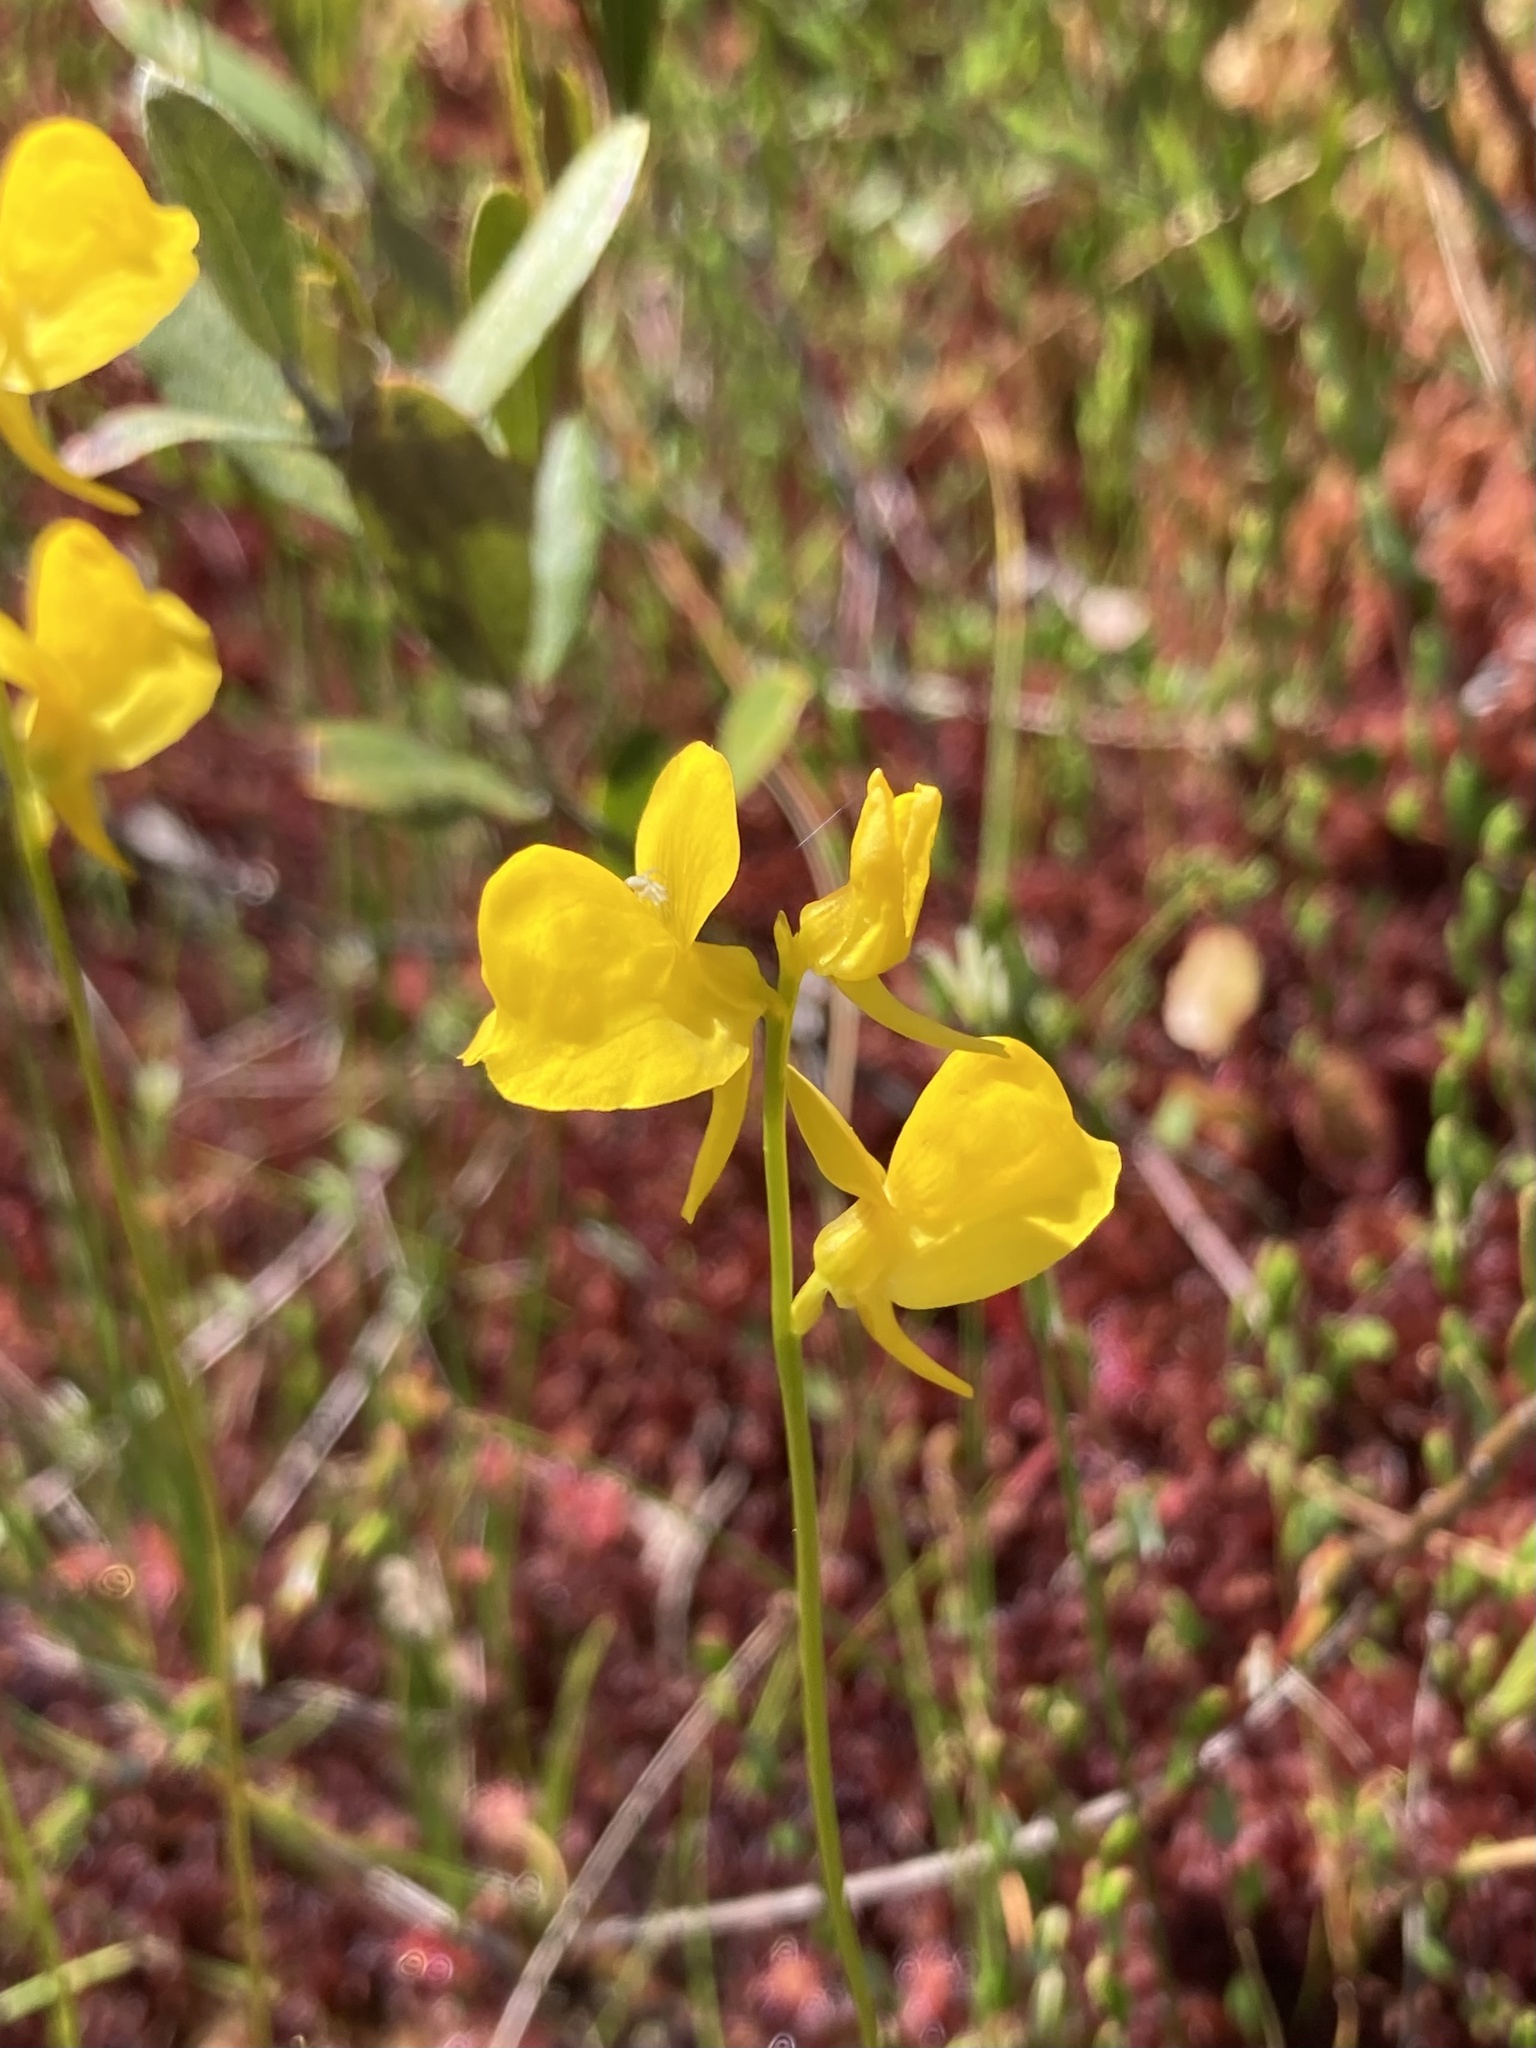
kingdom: Plantae
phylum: Tracheophyta
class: Magnoliopsida
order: Lamiales
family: Lentibulariaceae
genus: Utricularia
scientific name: Utricularia cornuta
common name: Horned bladderwort
